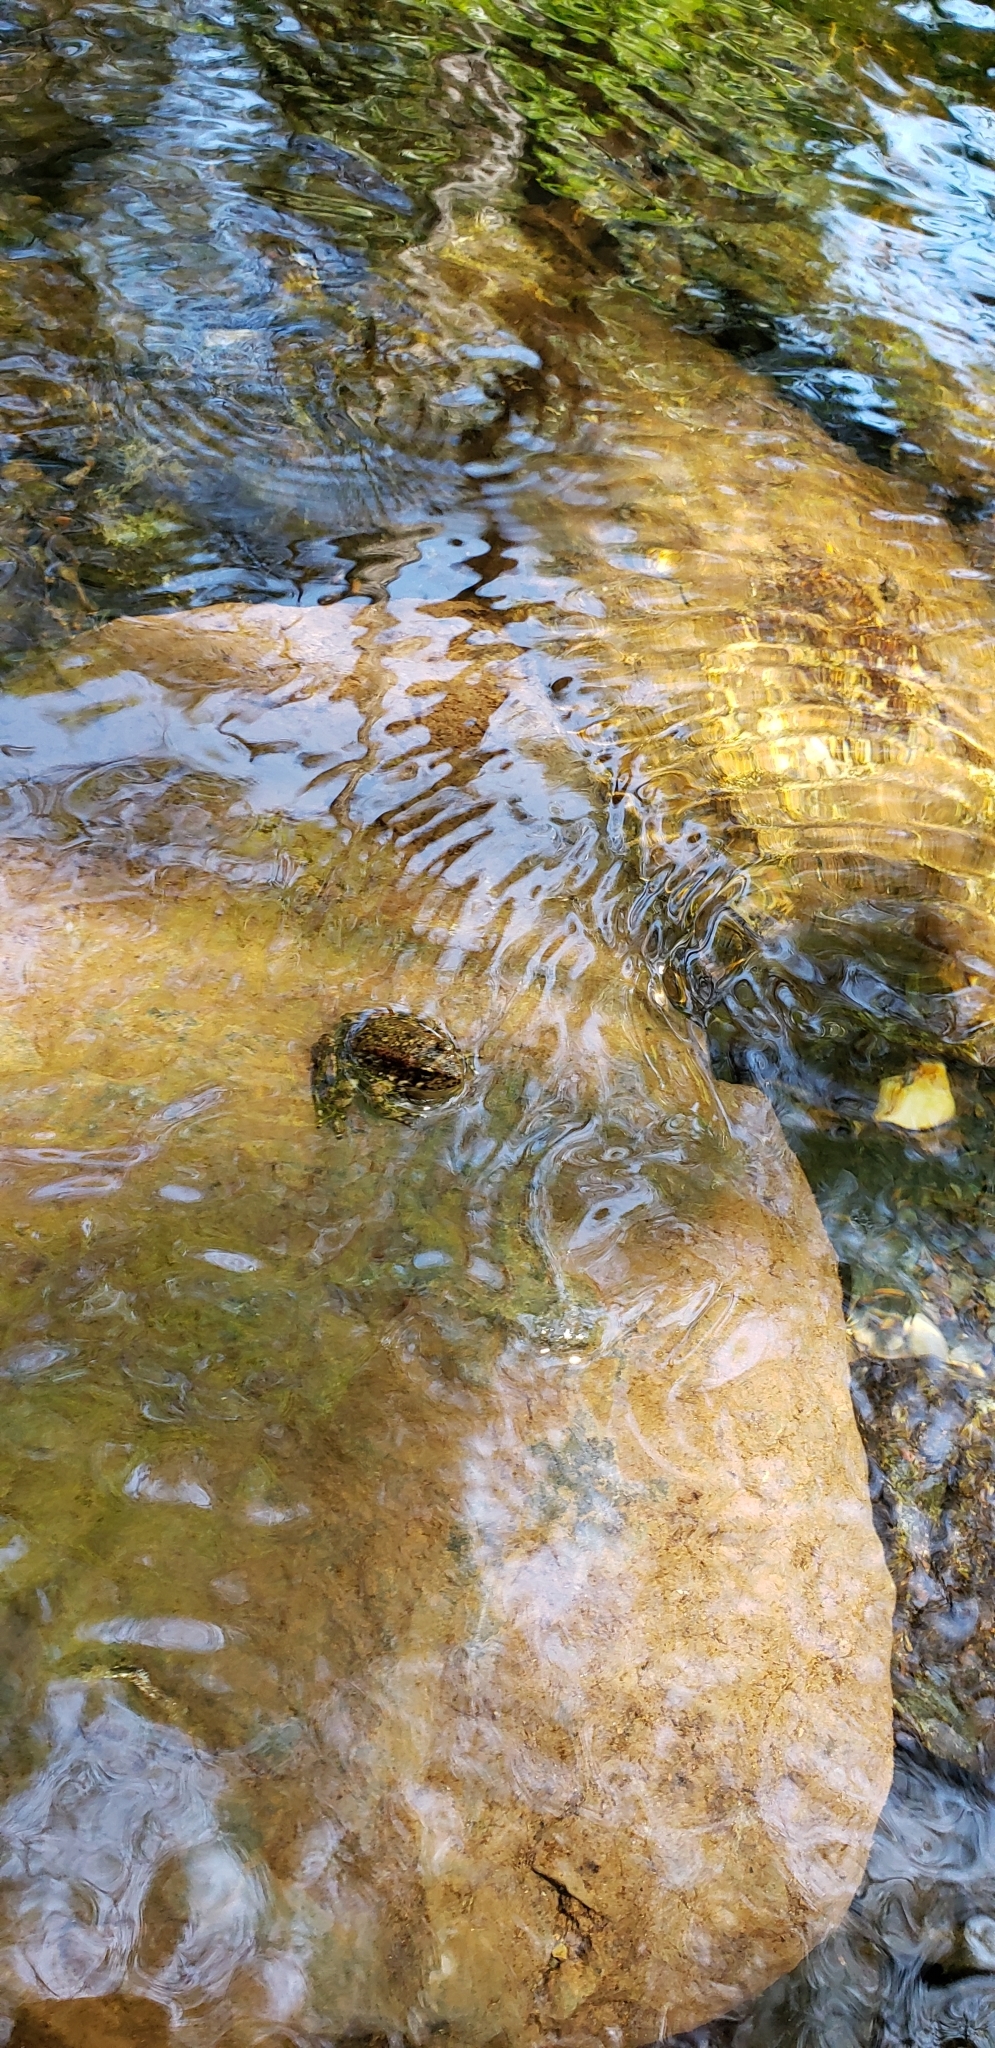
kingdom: Animalia
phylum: Chordata
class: Amphibia
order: Anura
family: Ranidae
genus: Rana
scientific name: Rana boylii
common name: Foothill yellow-legged frog
